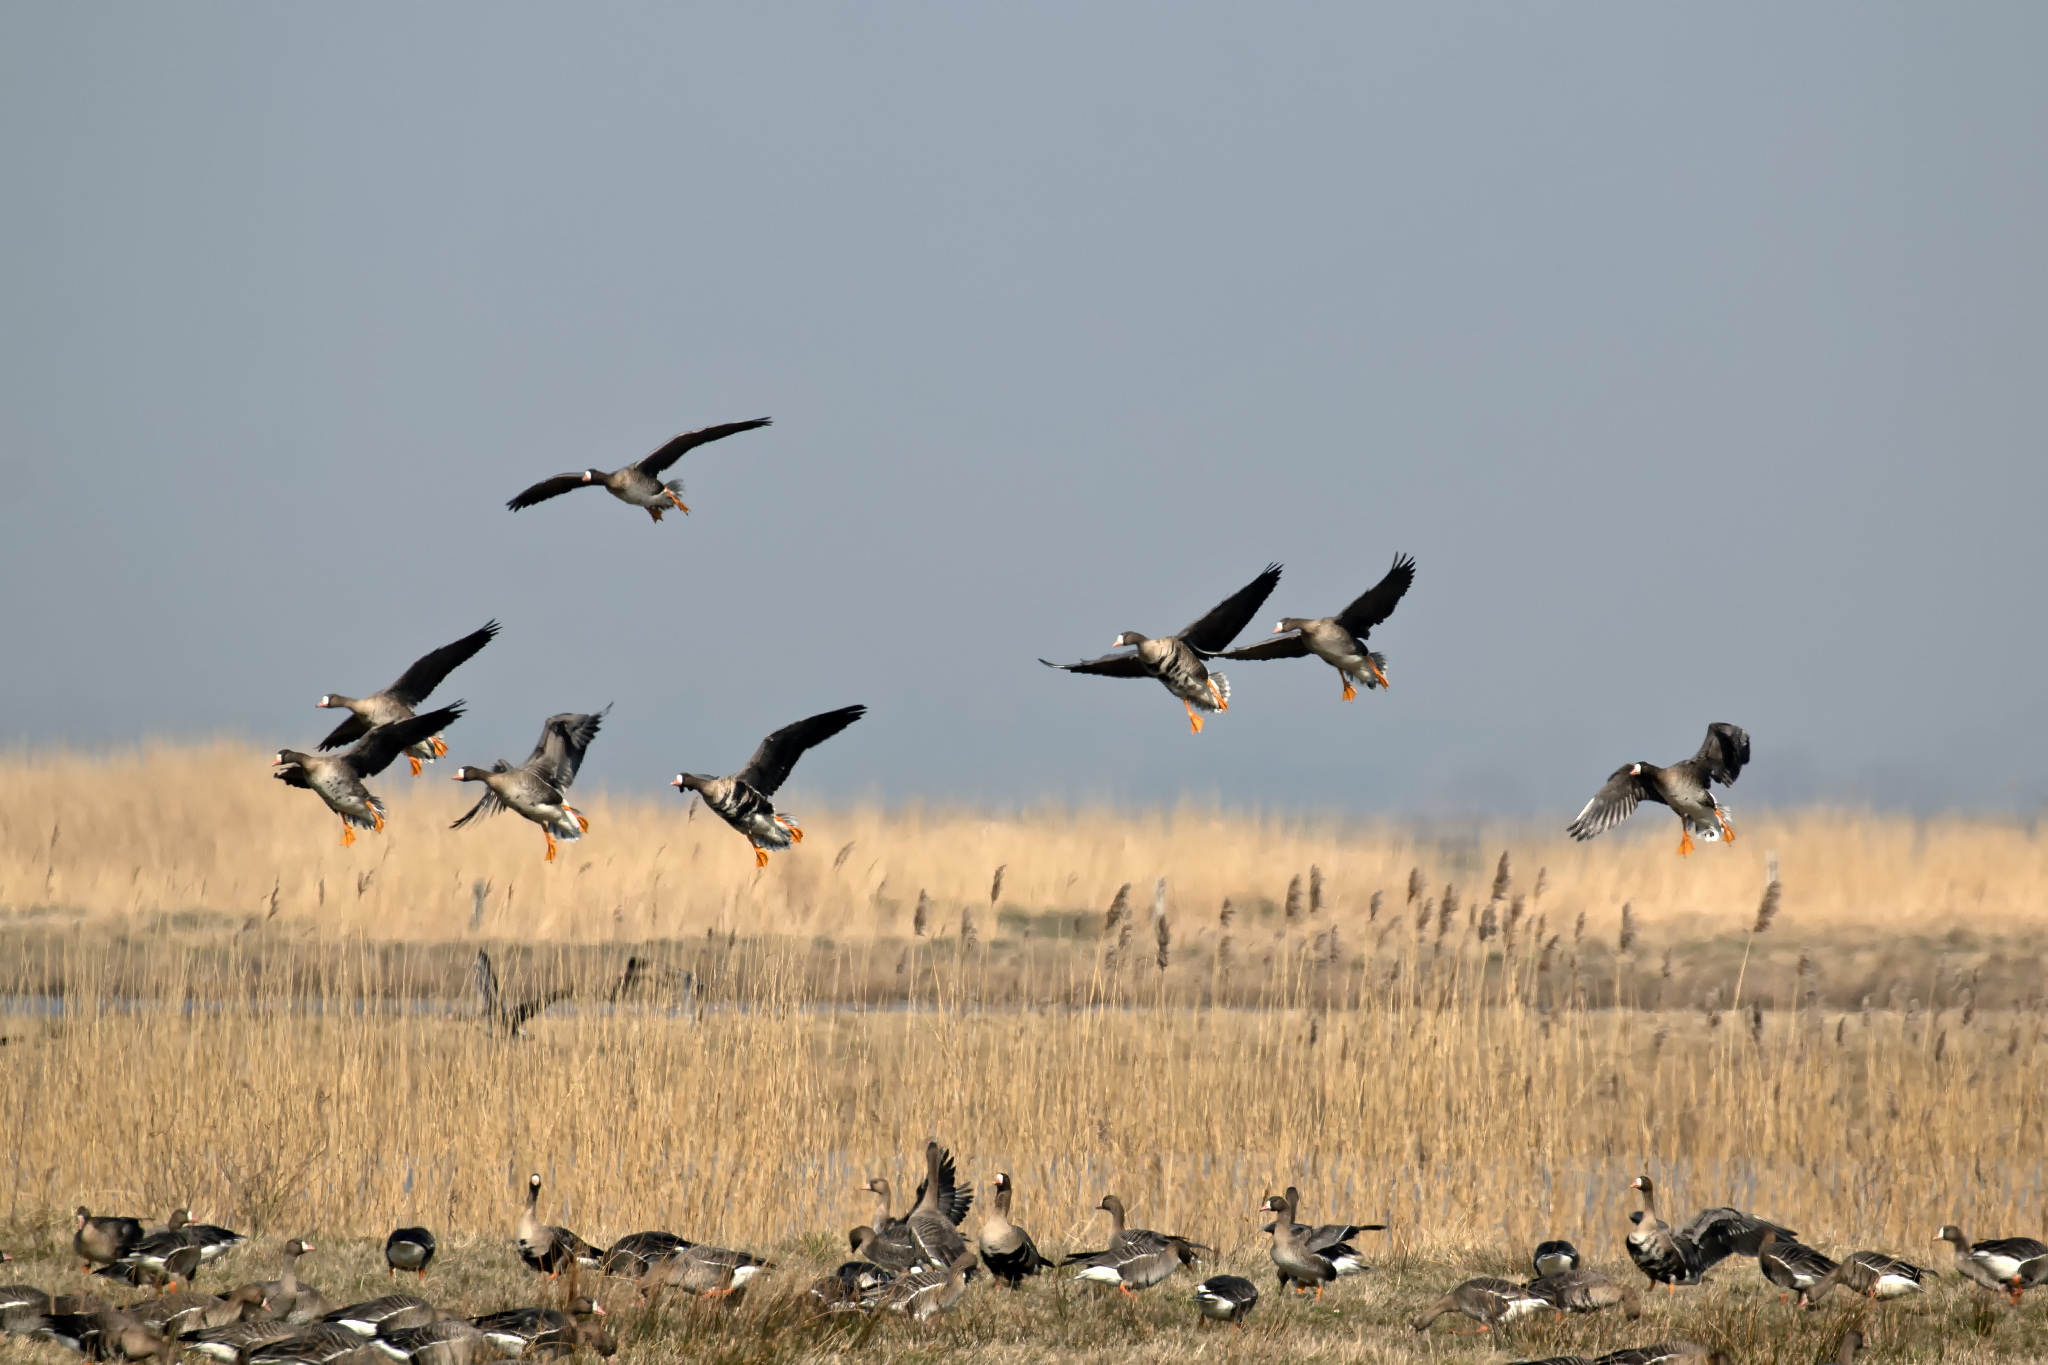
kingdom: Animalia
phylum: Chordata
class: Aves
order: Anseriformes
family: Anatidae
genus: Anser
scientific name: Anser albifrons
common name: Greater white-fronted goose
